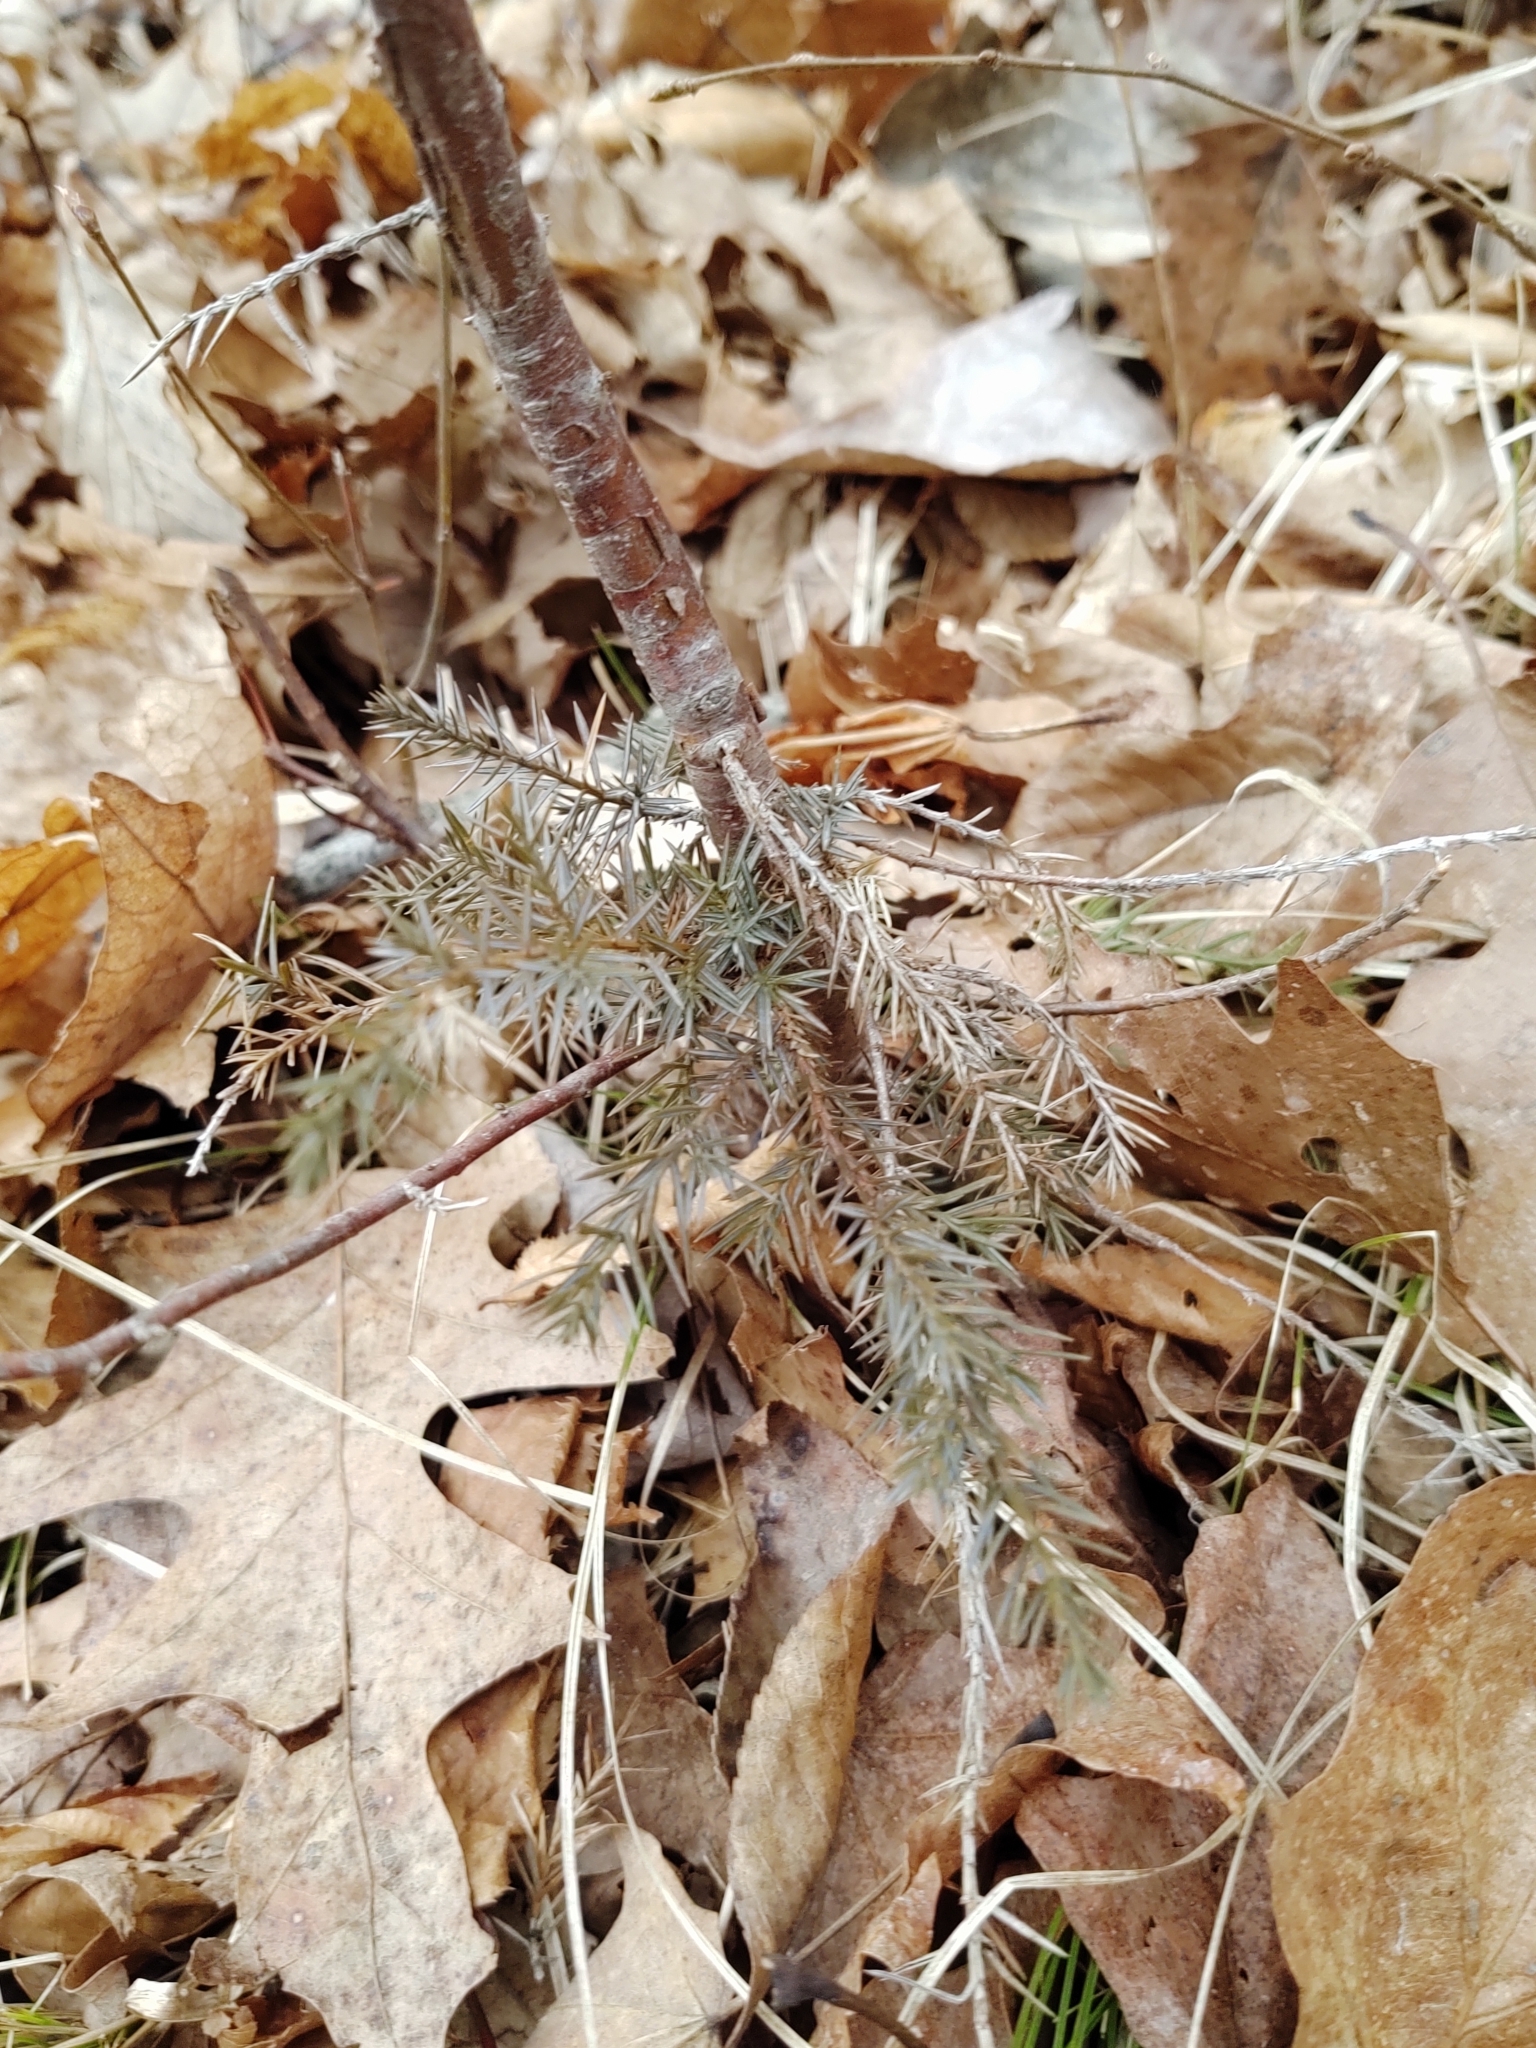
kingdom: Plantae
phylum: Tracheophyta
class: Pinopsida
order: Pinales
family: Cupressaceae
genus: Juniperus
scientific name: Juniperus virginiana
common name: Red juniper
